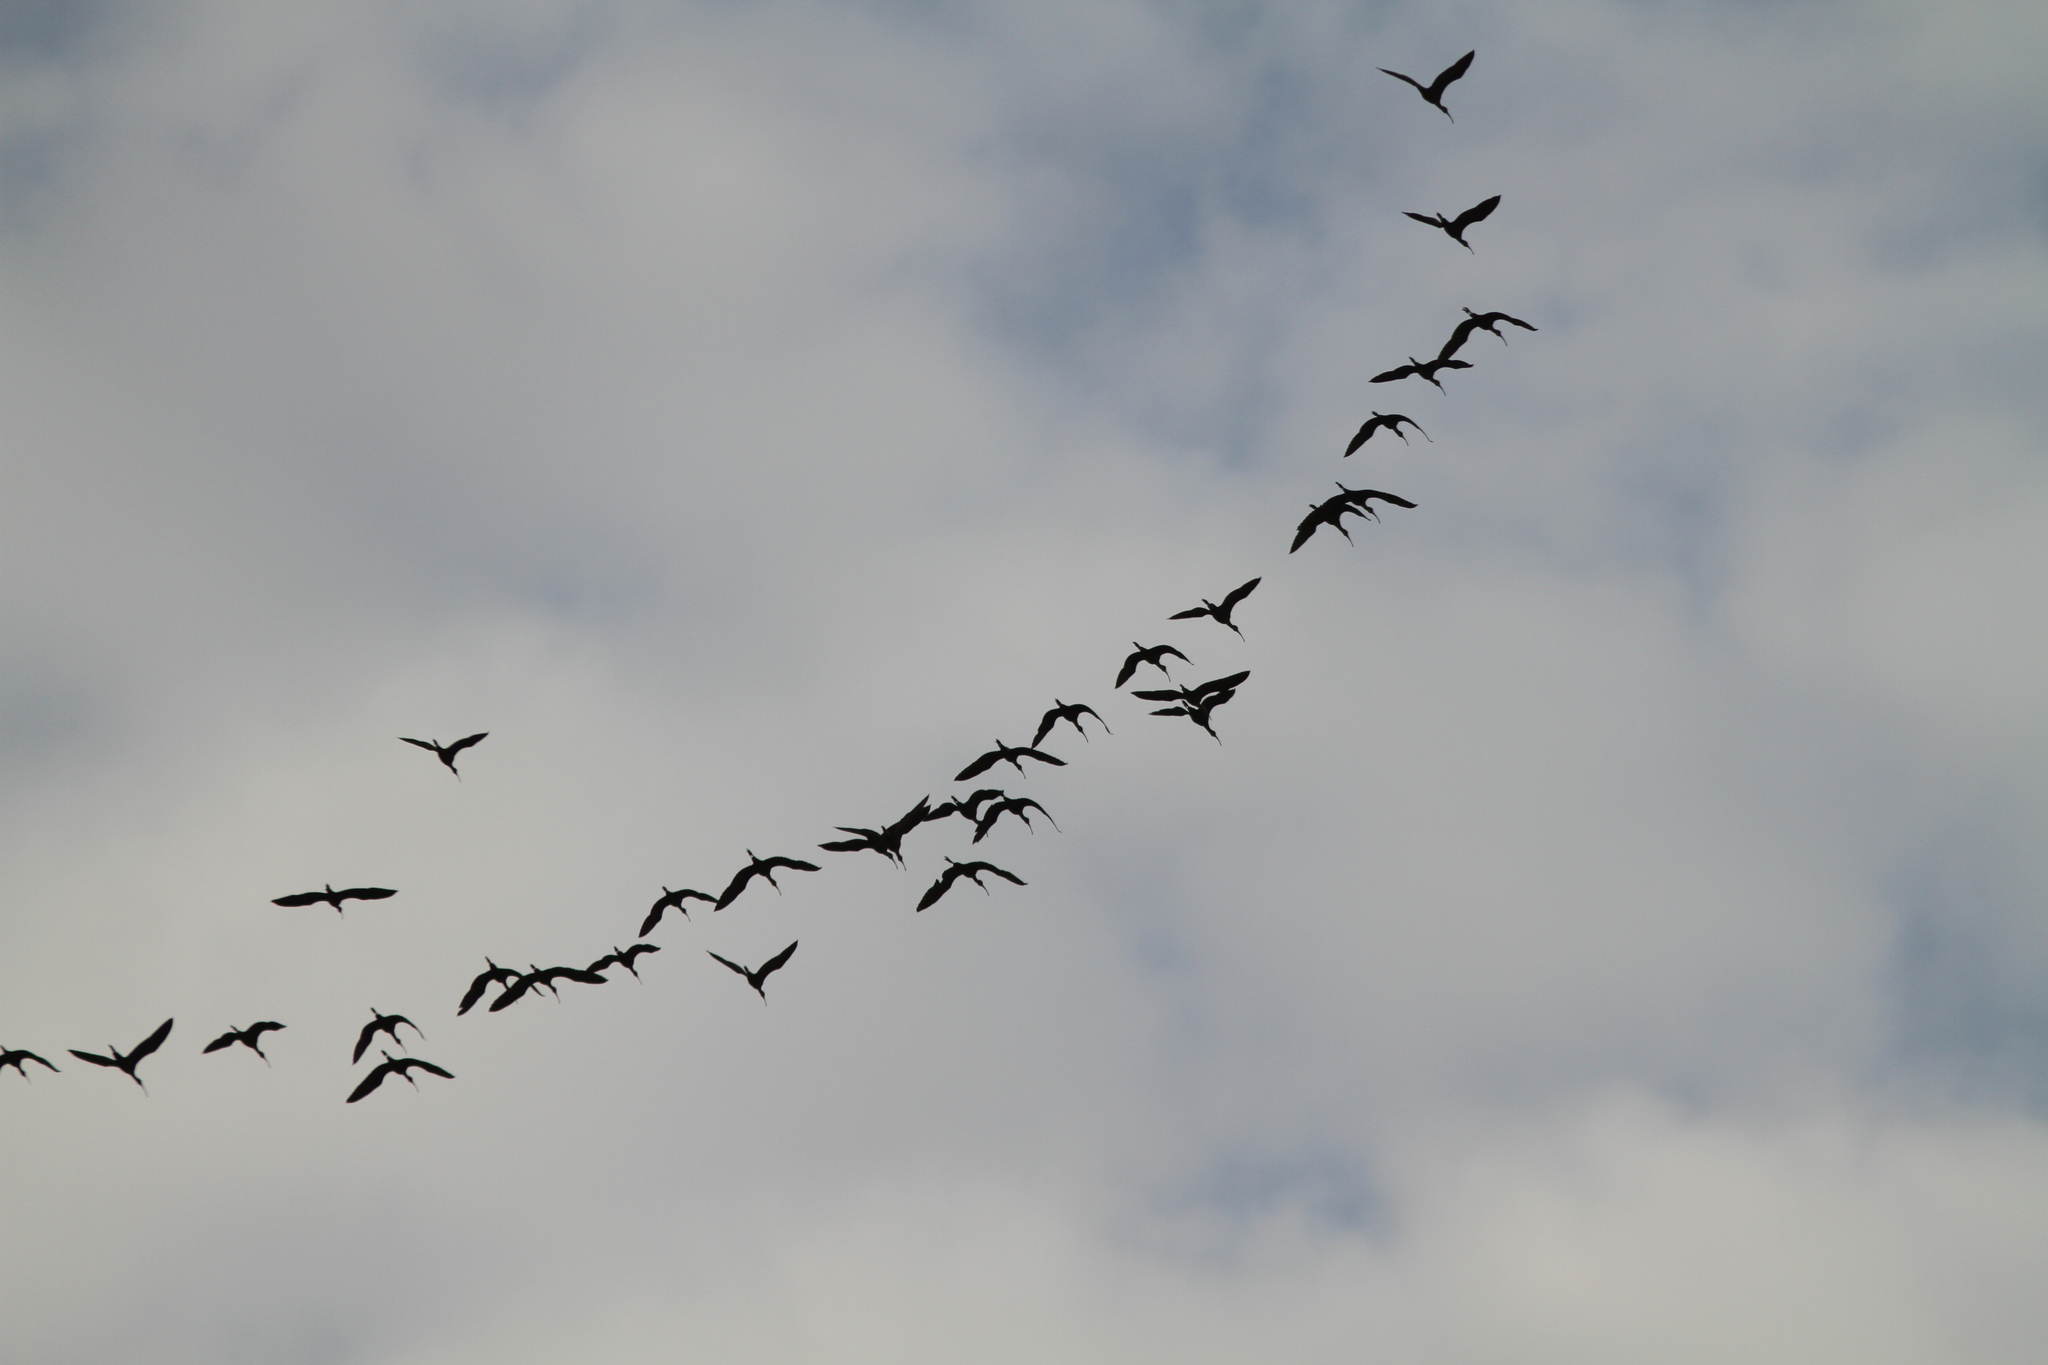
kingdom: Animalia
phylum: Chordata
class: Aves
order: Pelecaniformes
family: Threskiornithidae
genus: Plegadis
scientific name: Plegadis falcinellus
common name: Glossy ibis
